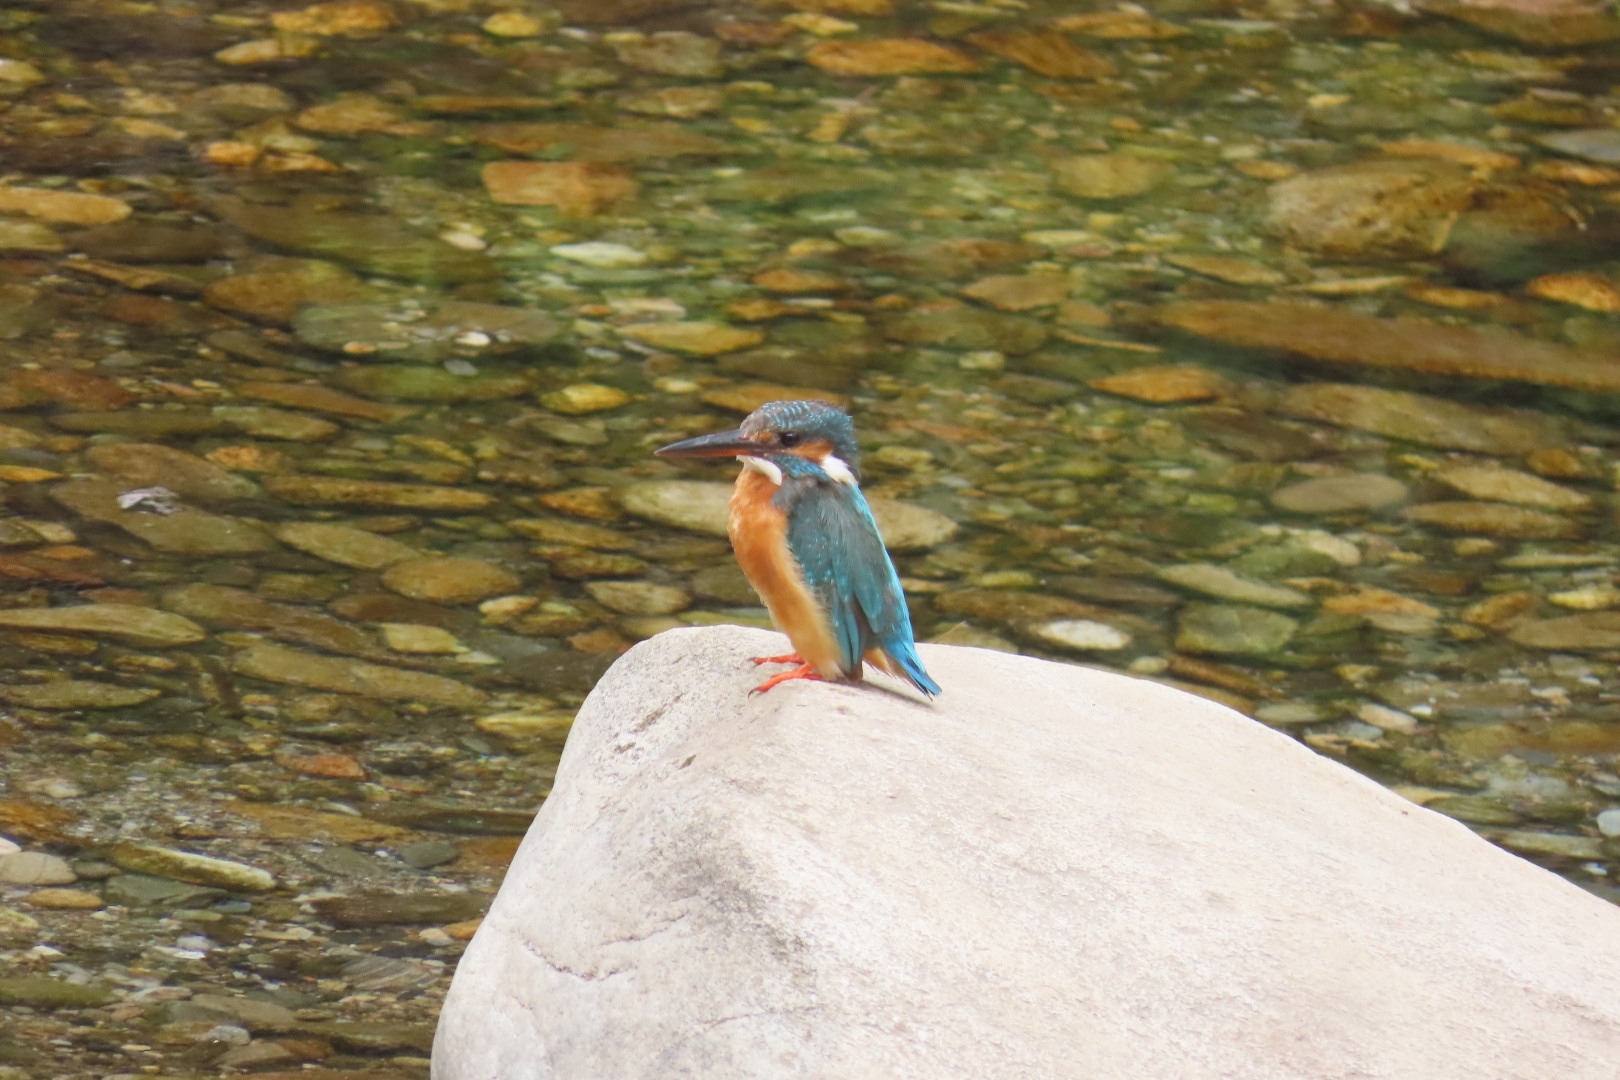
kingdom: Animalia
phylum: Chordata
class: Aves
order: Coraciiformes
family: Alcedinidae
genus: Alcedo
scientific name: Alcedo atthis
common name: Common kingfisher
